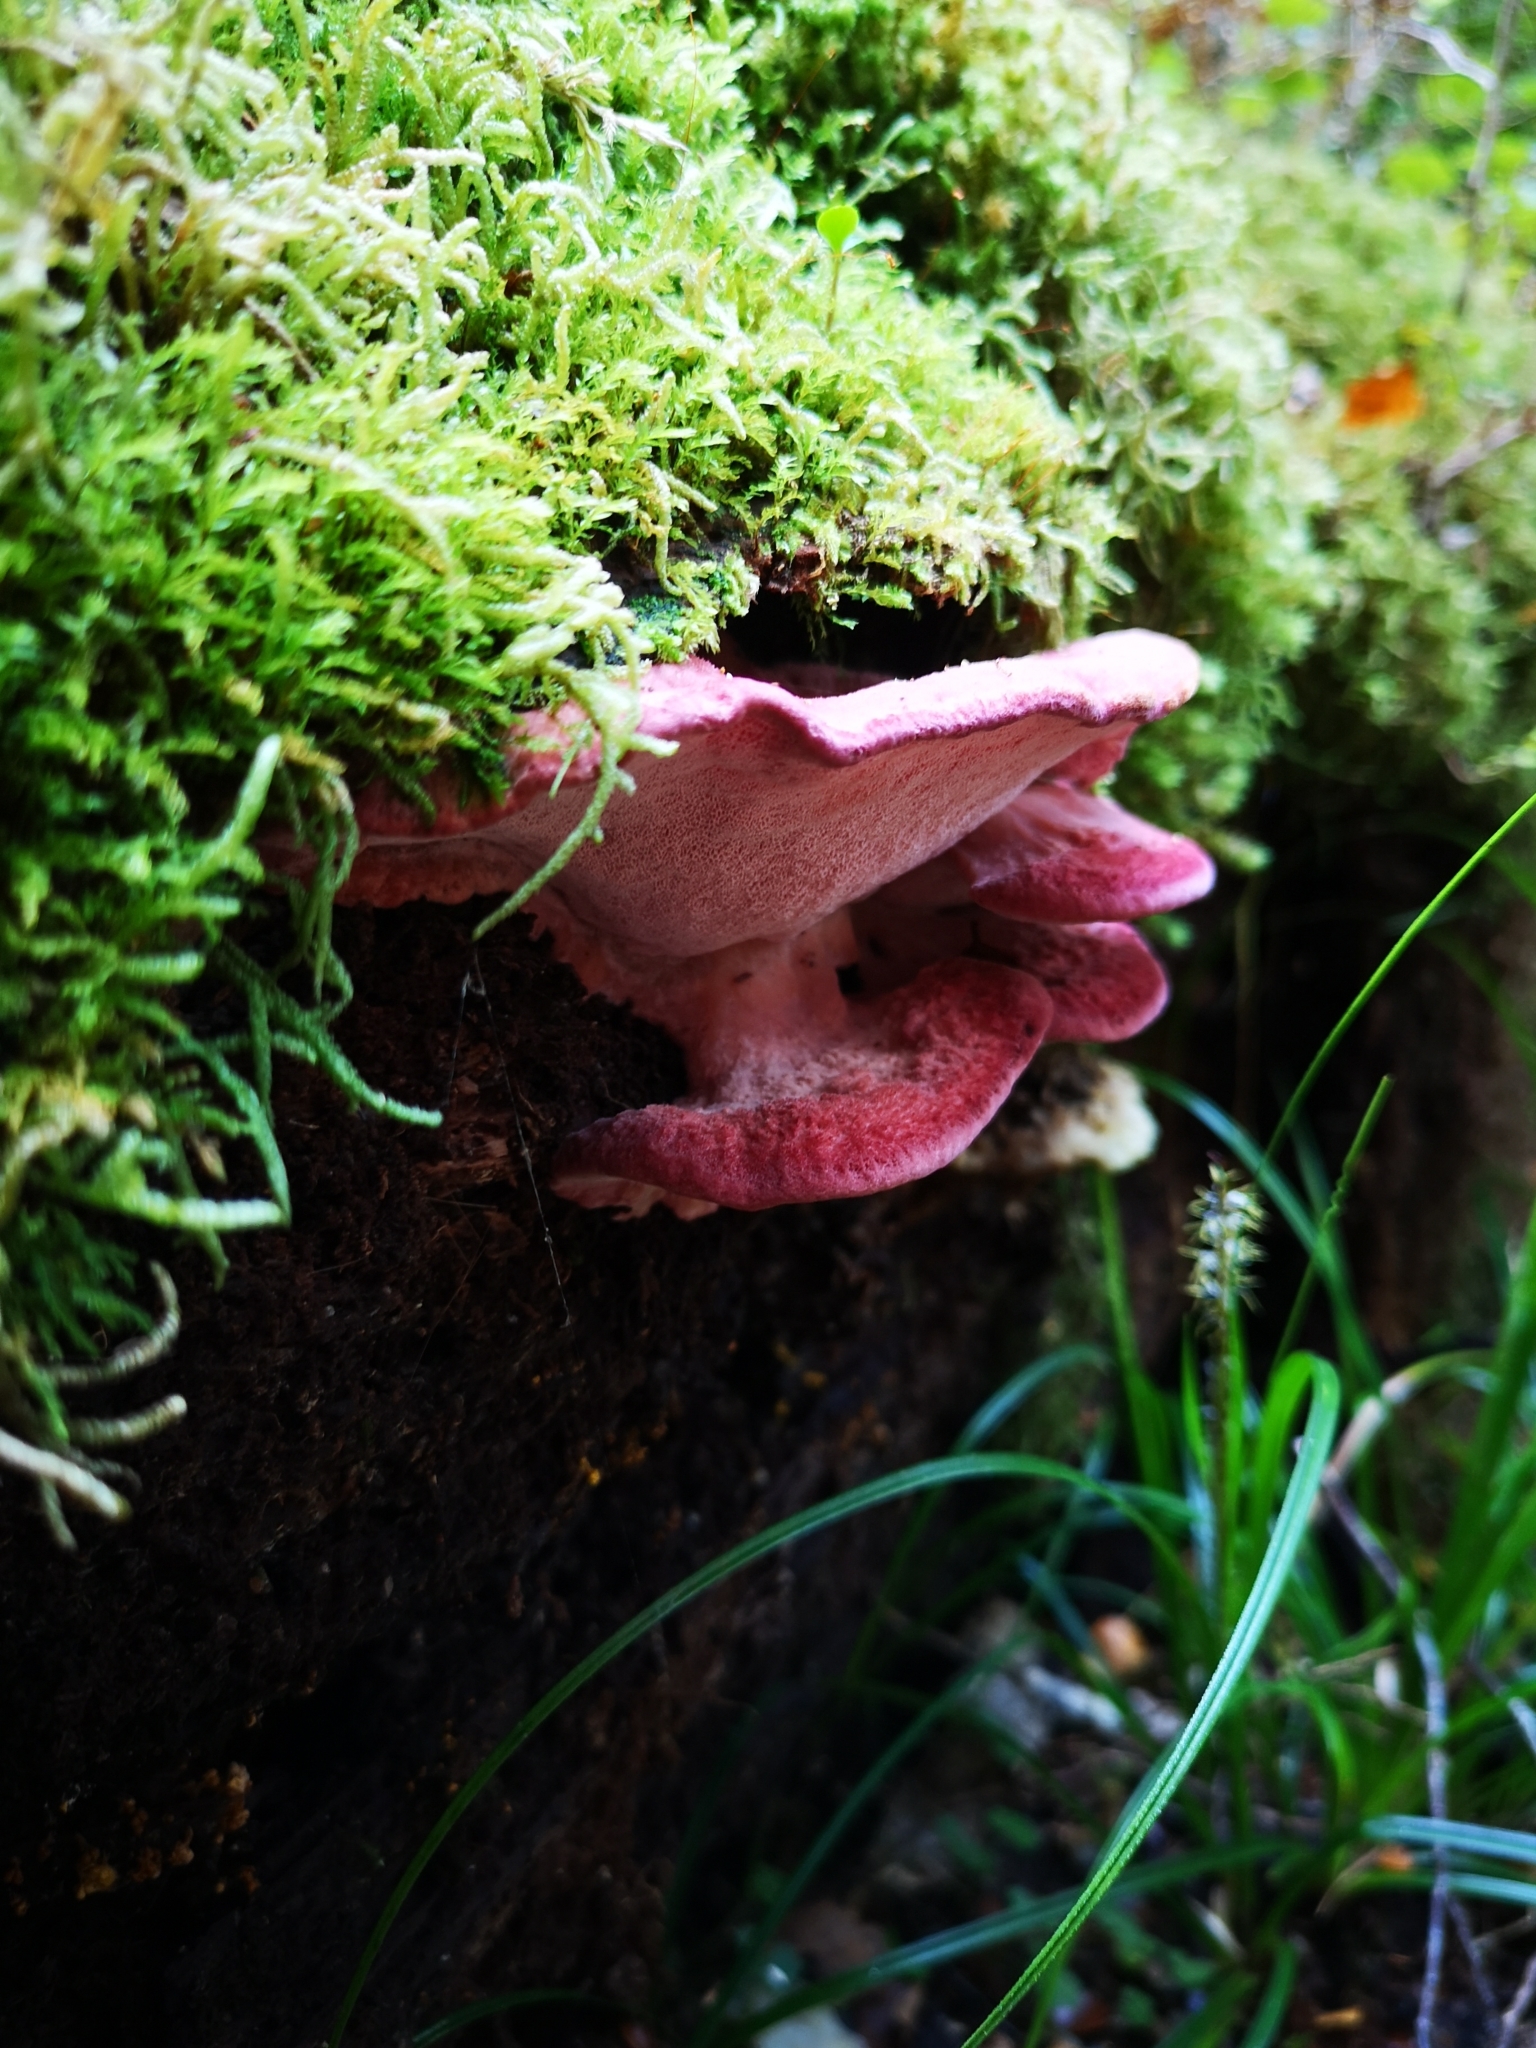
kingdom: Fungi
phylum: Basidiomycota
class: Agaricomycetes
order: Polyporales
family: Incrustoporiaceae
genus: Tyromyces
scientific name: Tyromyces pulcherrimus
